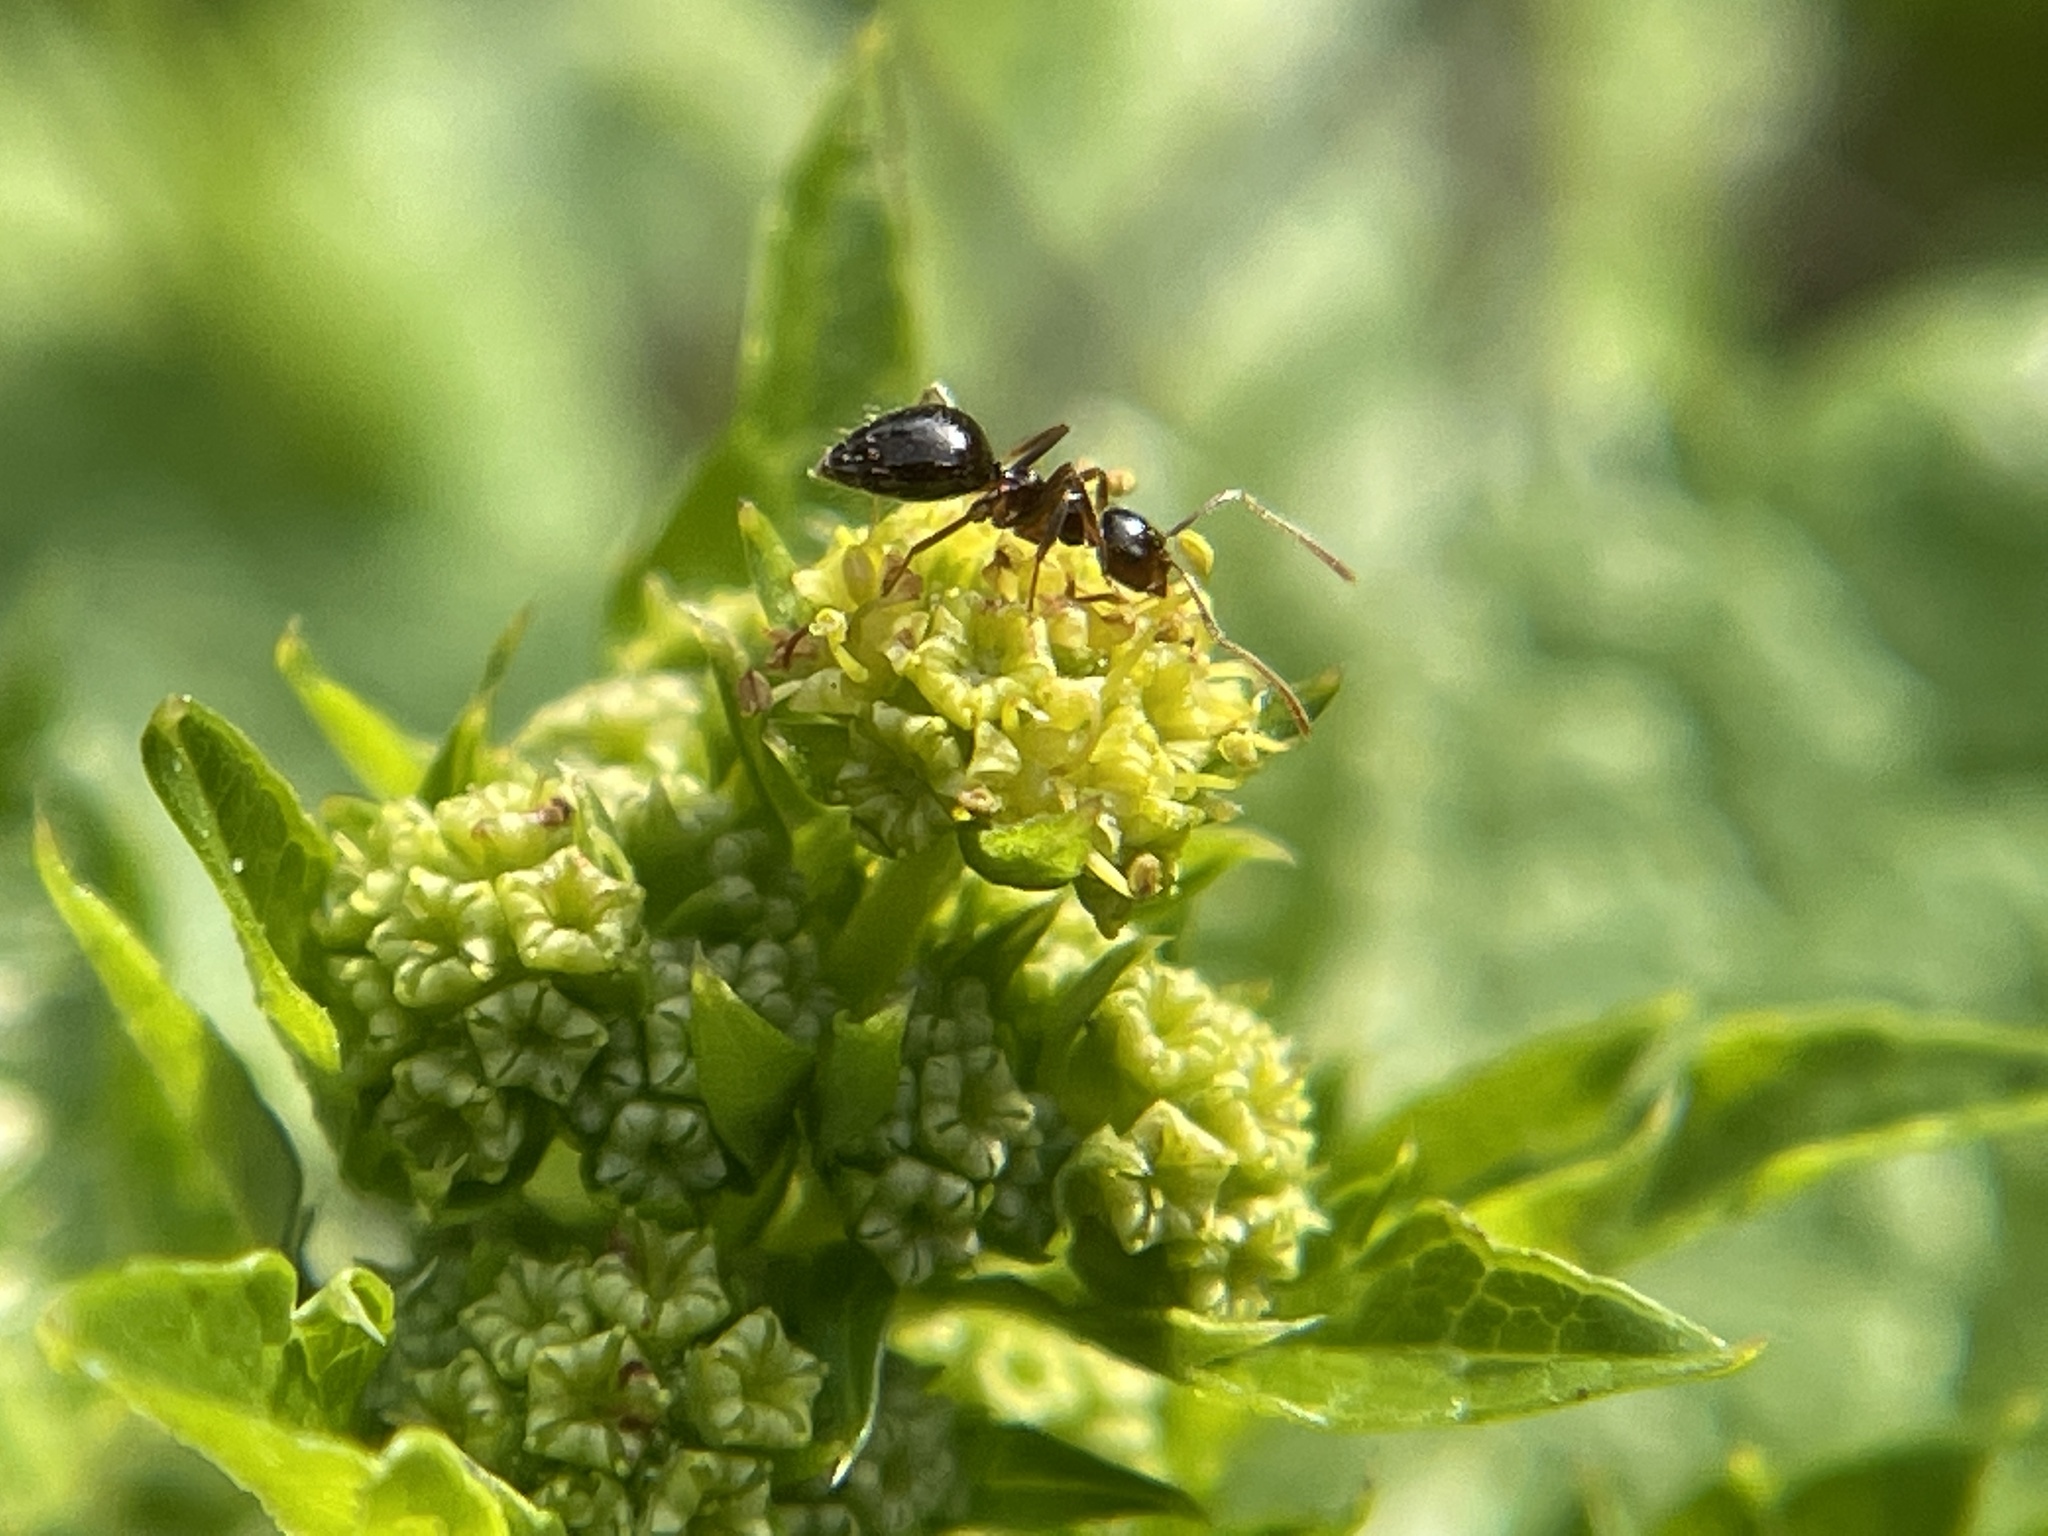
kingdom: Animalia
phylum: Arthropoda
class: Insecta
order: Hymenoptera
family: Formicidae
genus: Prenolepis
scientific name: Prenolepis imparis
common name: Small honey ant
